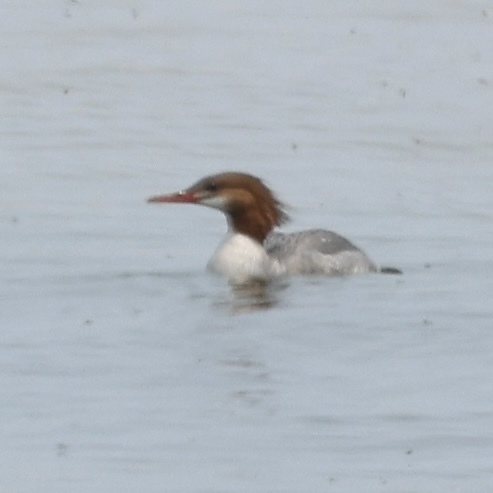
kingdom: Animalia
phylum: Chordata
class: Aves
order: Anseriformes
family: Anatidae
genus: Mergus
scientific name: Mergus merganser
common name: Common merganser
